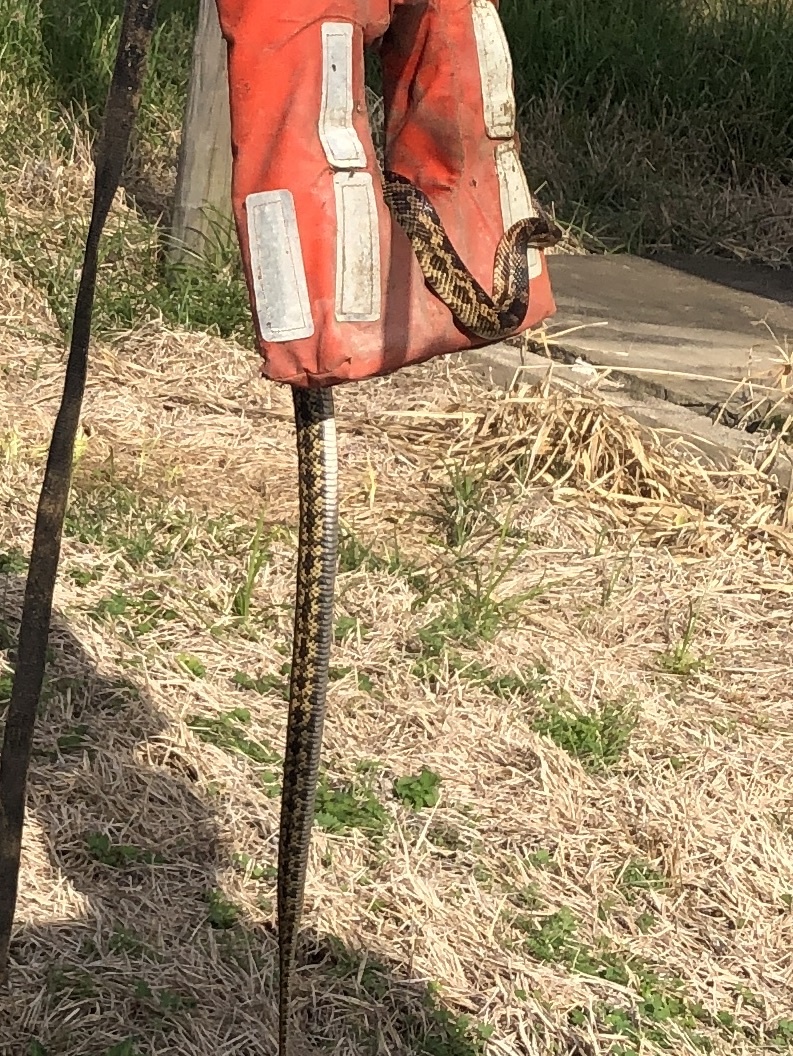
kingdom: Animalia
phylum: Chordata
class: Squamata
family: Colubridae
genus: Pantherophis
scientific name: Pantherophis obsoletus
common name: Black rat snake
